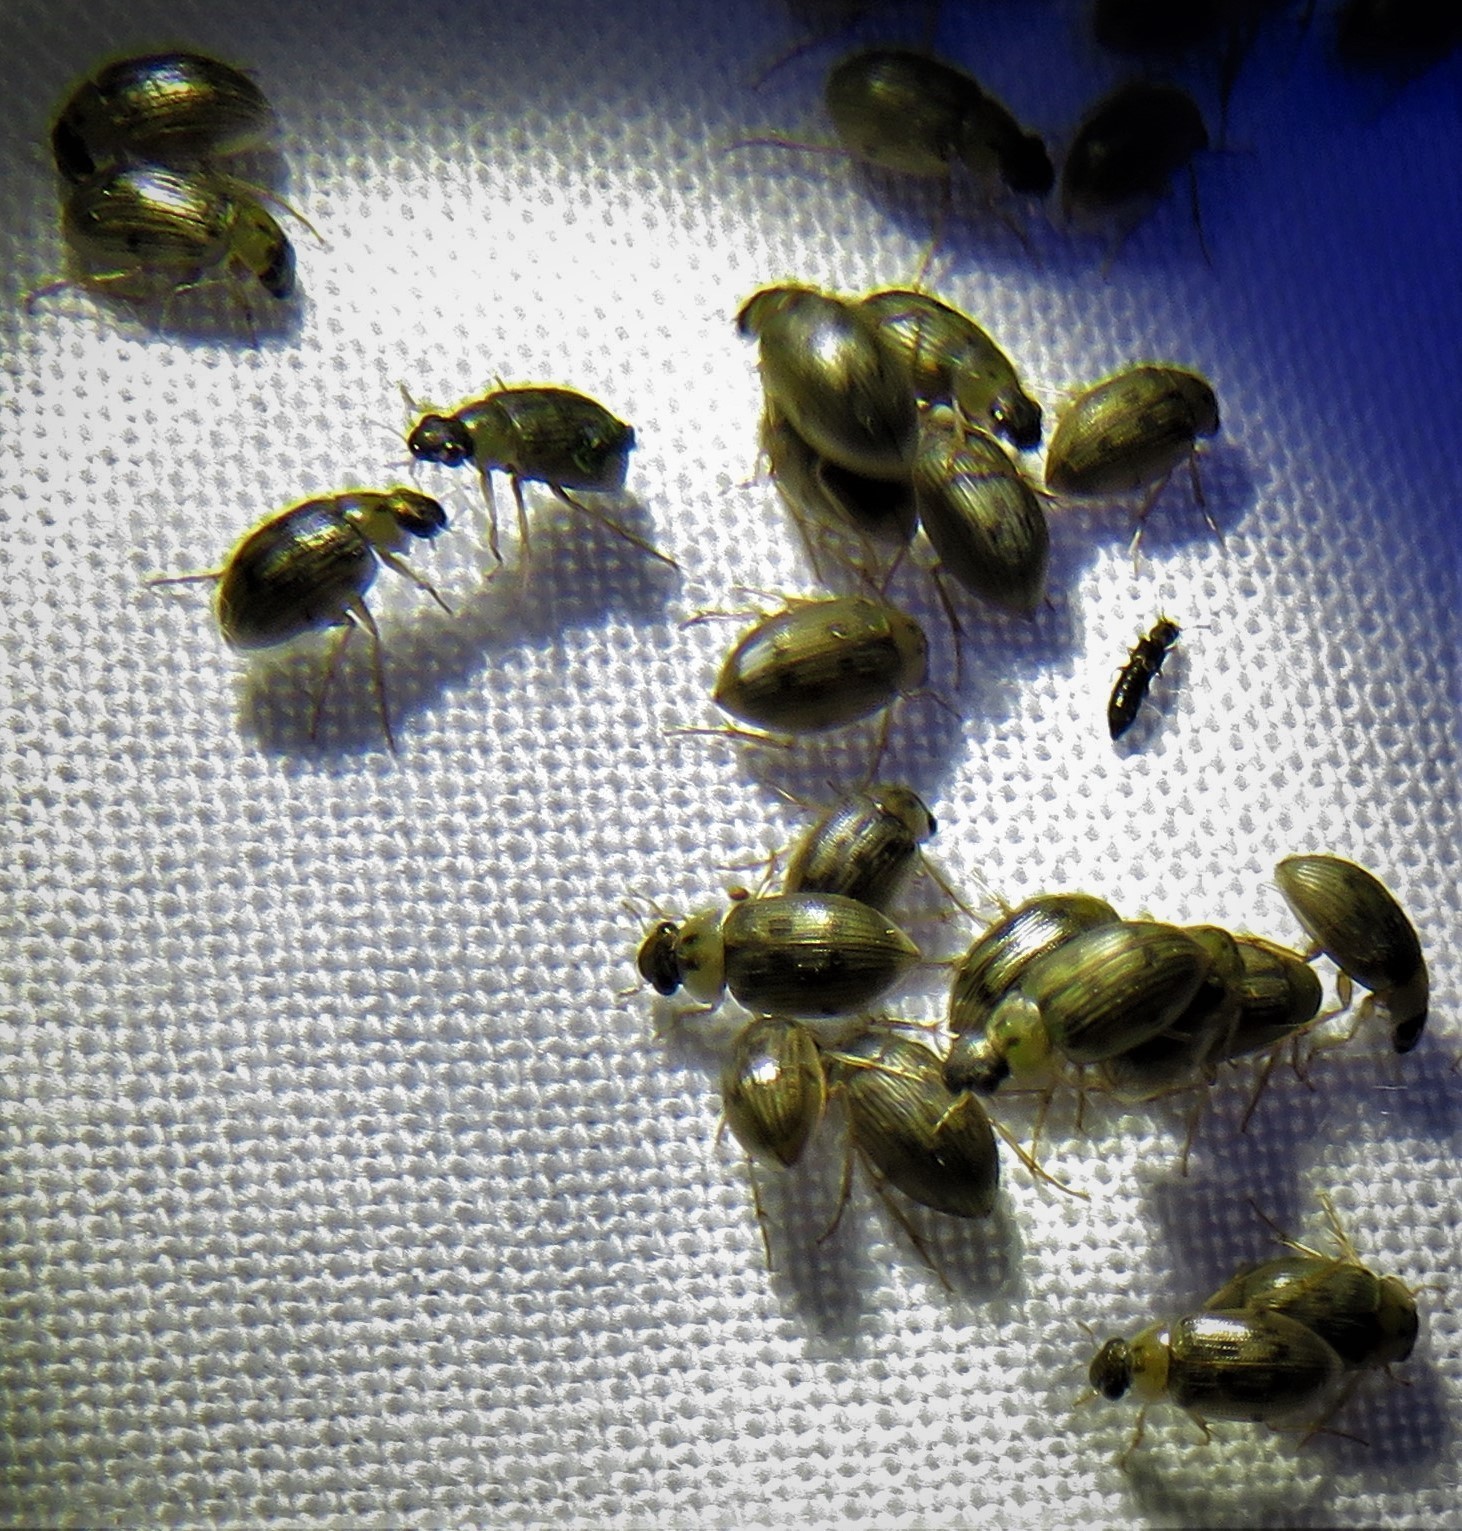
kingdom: Animalia
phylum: Arthropoda
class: Insecta
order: Coleoptera
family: Hydrophilidae
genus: Berosus
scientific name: Berosus
